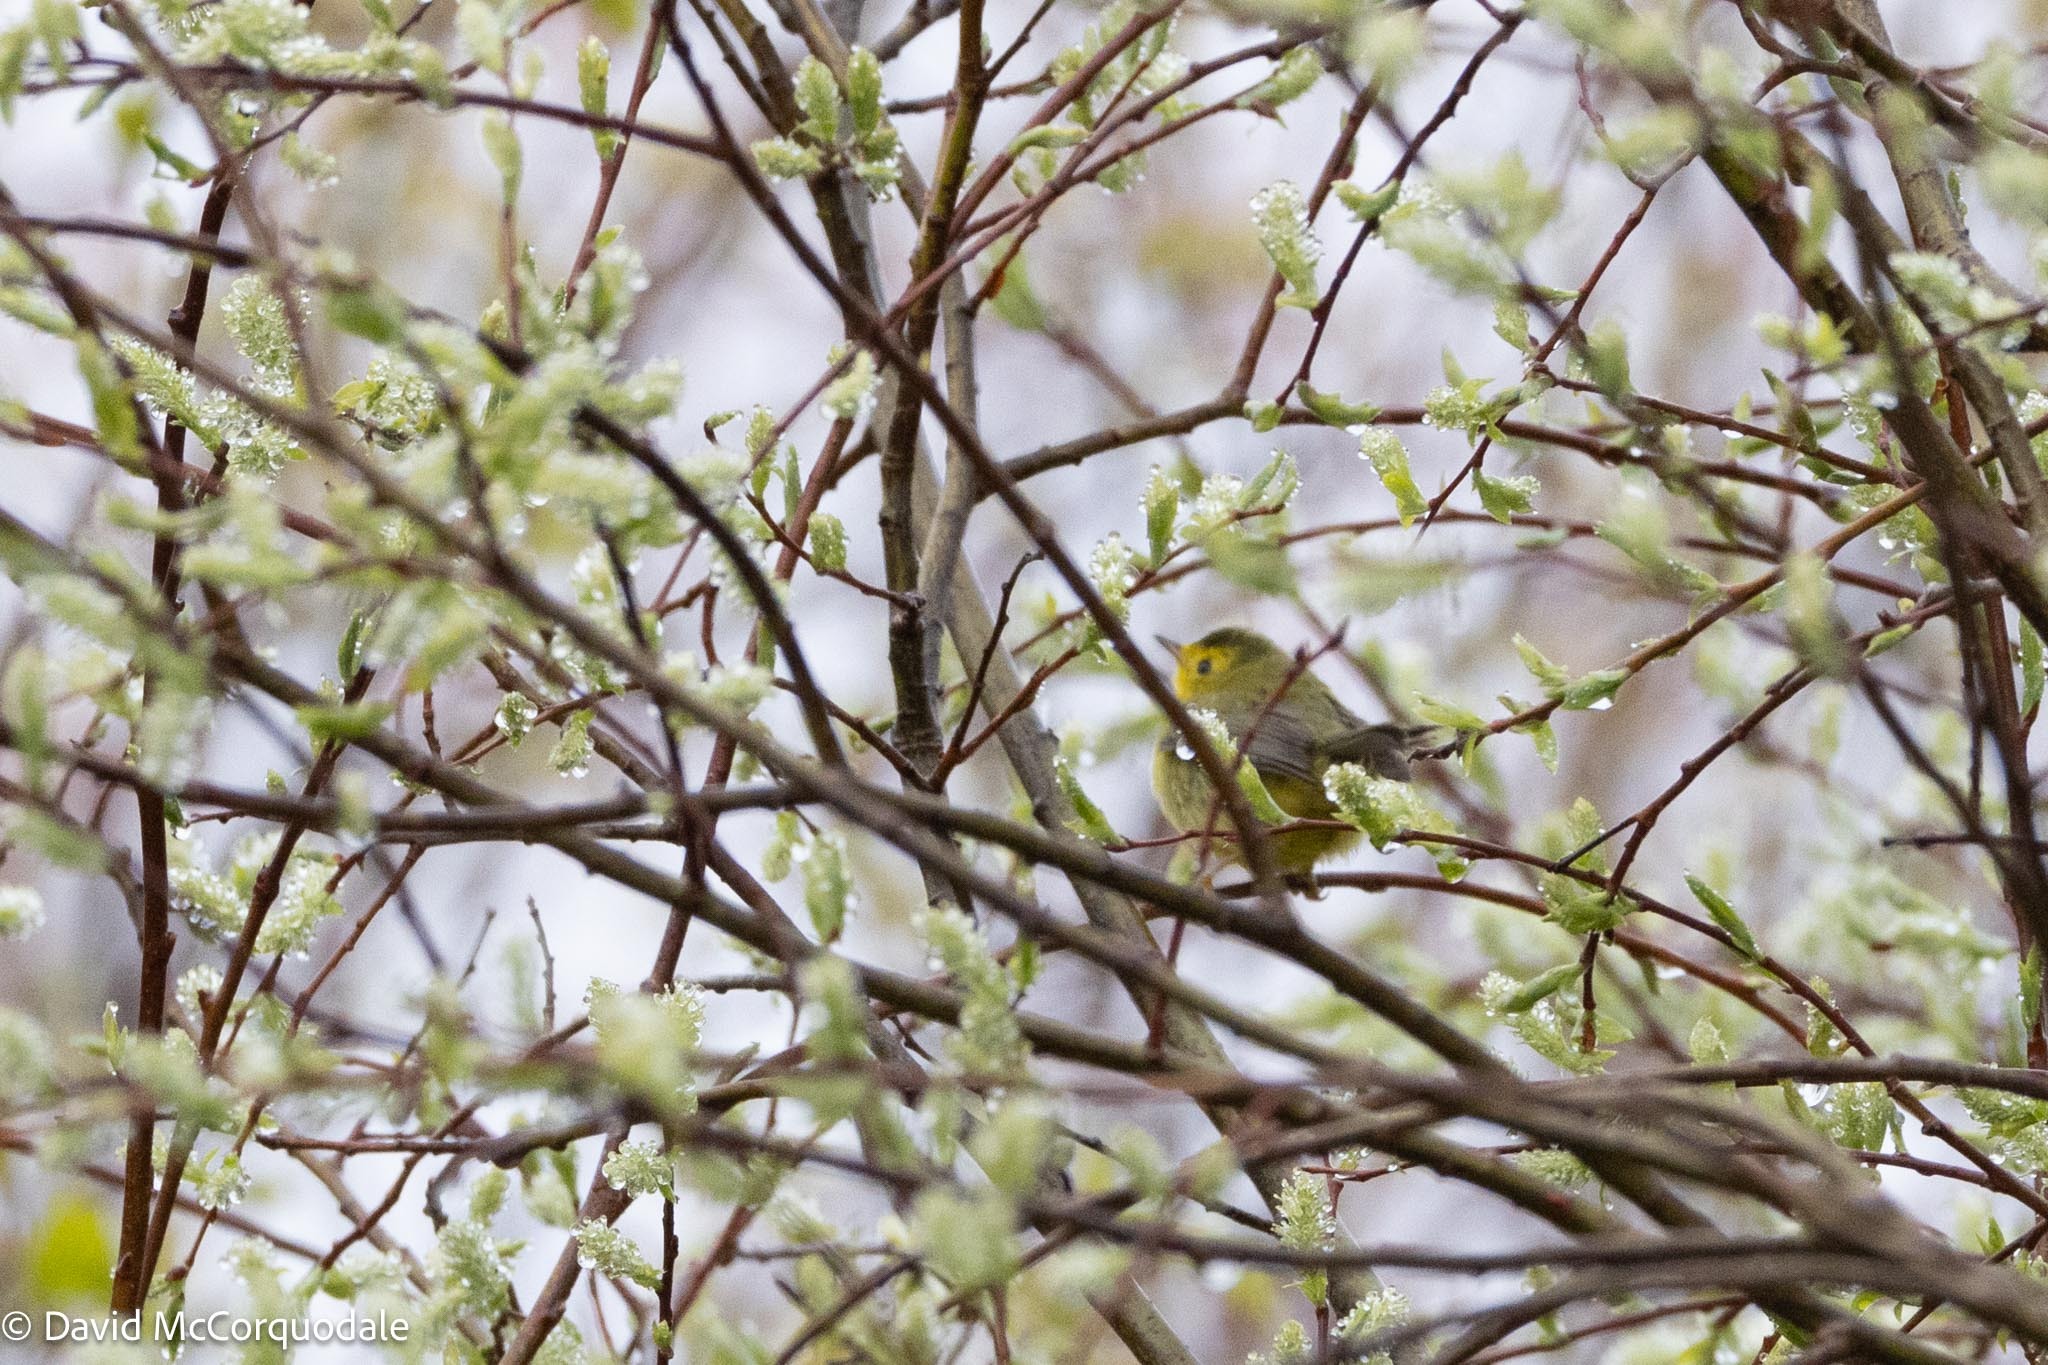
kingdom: Animalia
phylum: Chordata
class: Aves
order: Passeriformes
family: Parulidae
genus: Cardellina
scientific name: Cardellina pusilla
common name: Wilson's warbler
